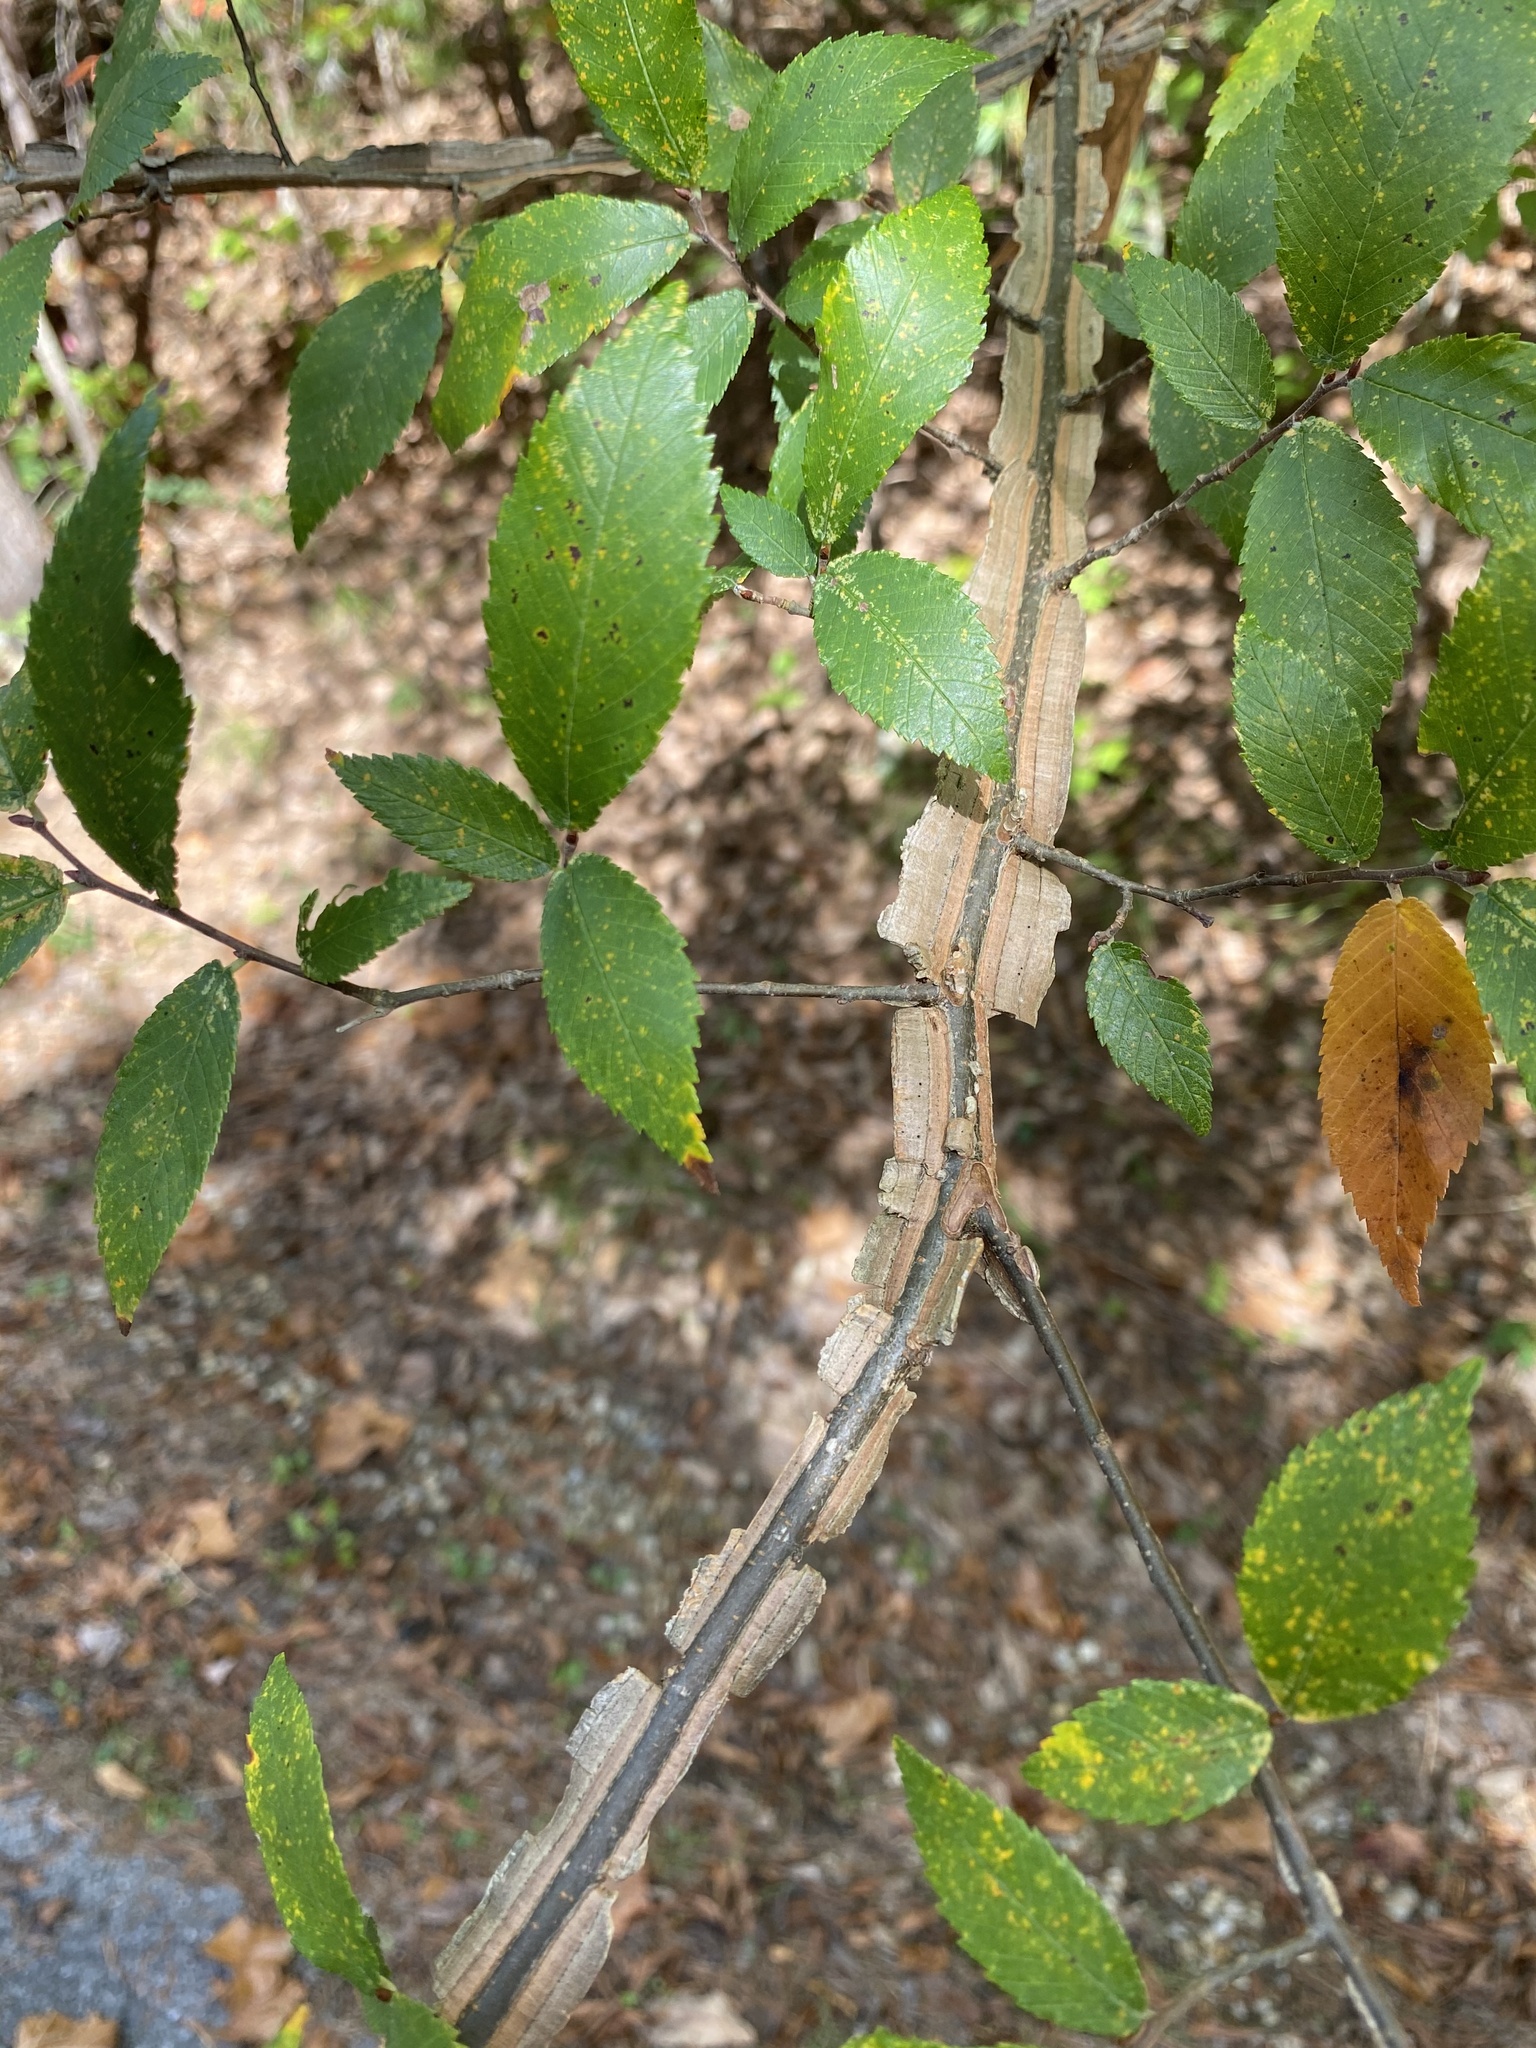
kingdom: Plantae
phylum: Tracheophyta
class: Magnoliopsida
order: Rosales
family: Ulmaceae
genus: Ulmus
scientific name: Ulmus alata
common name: Winged elm
